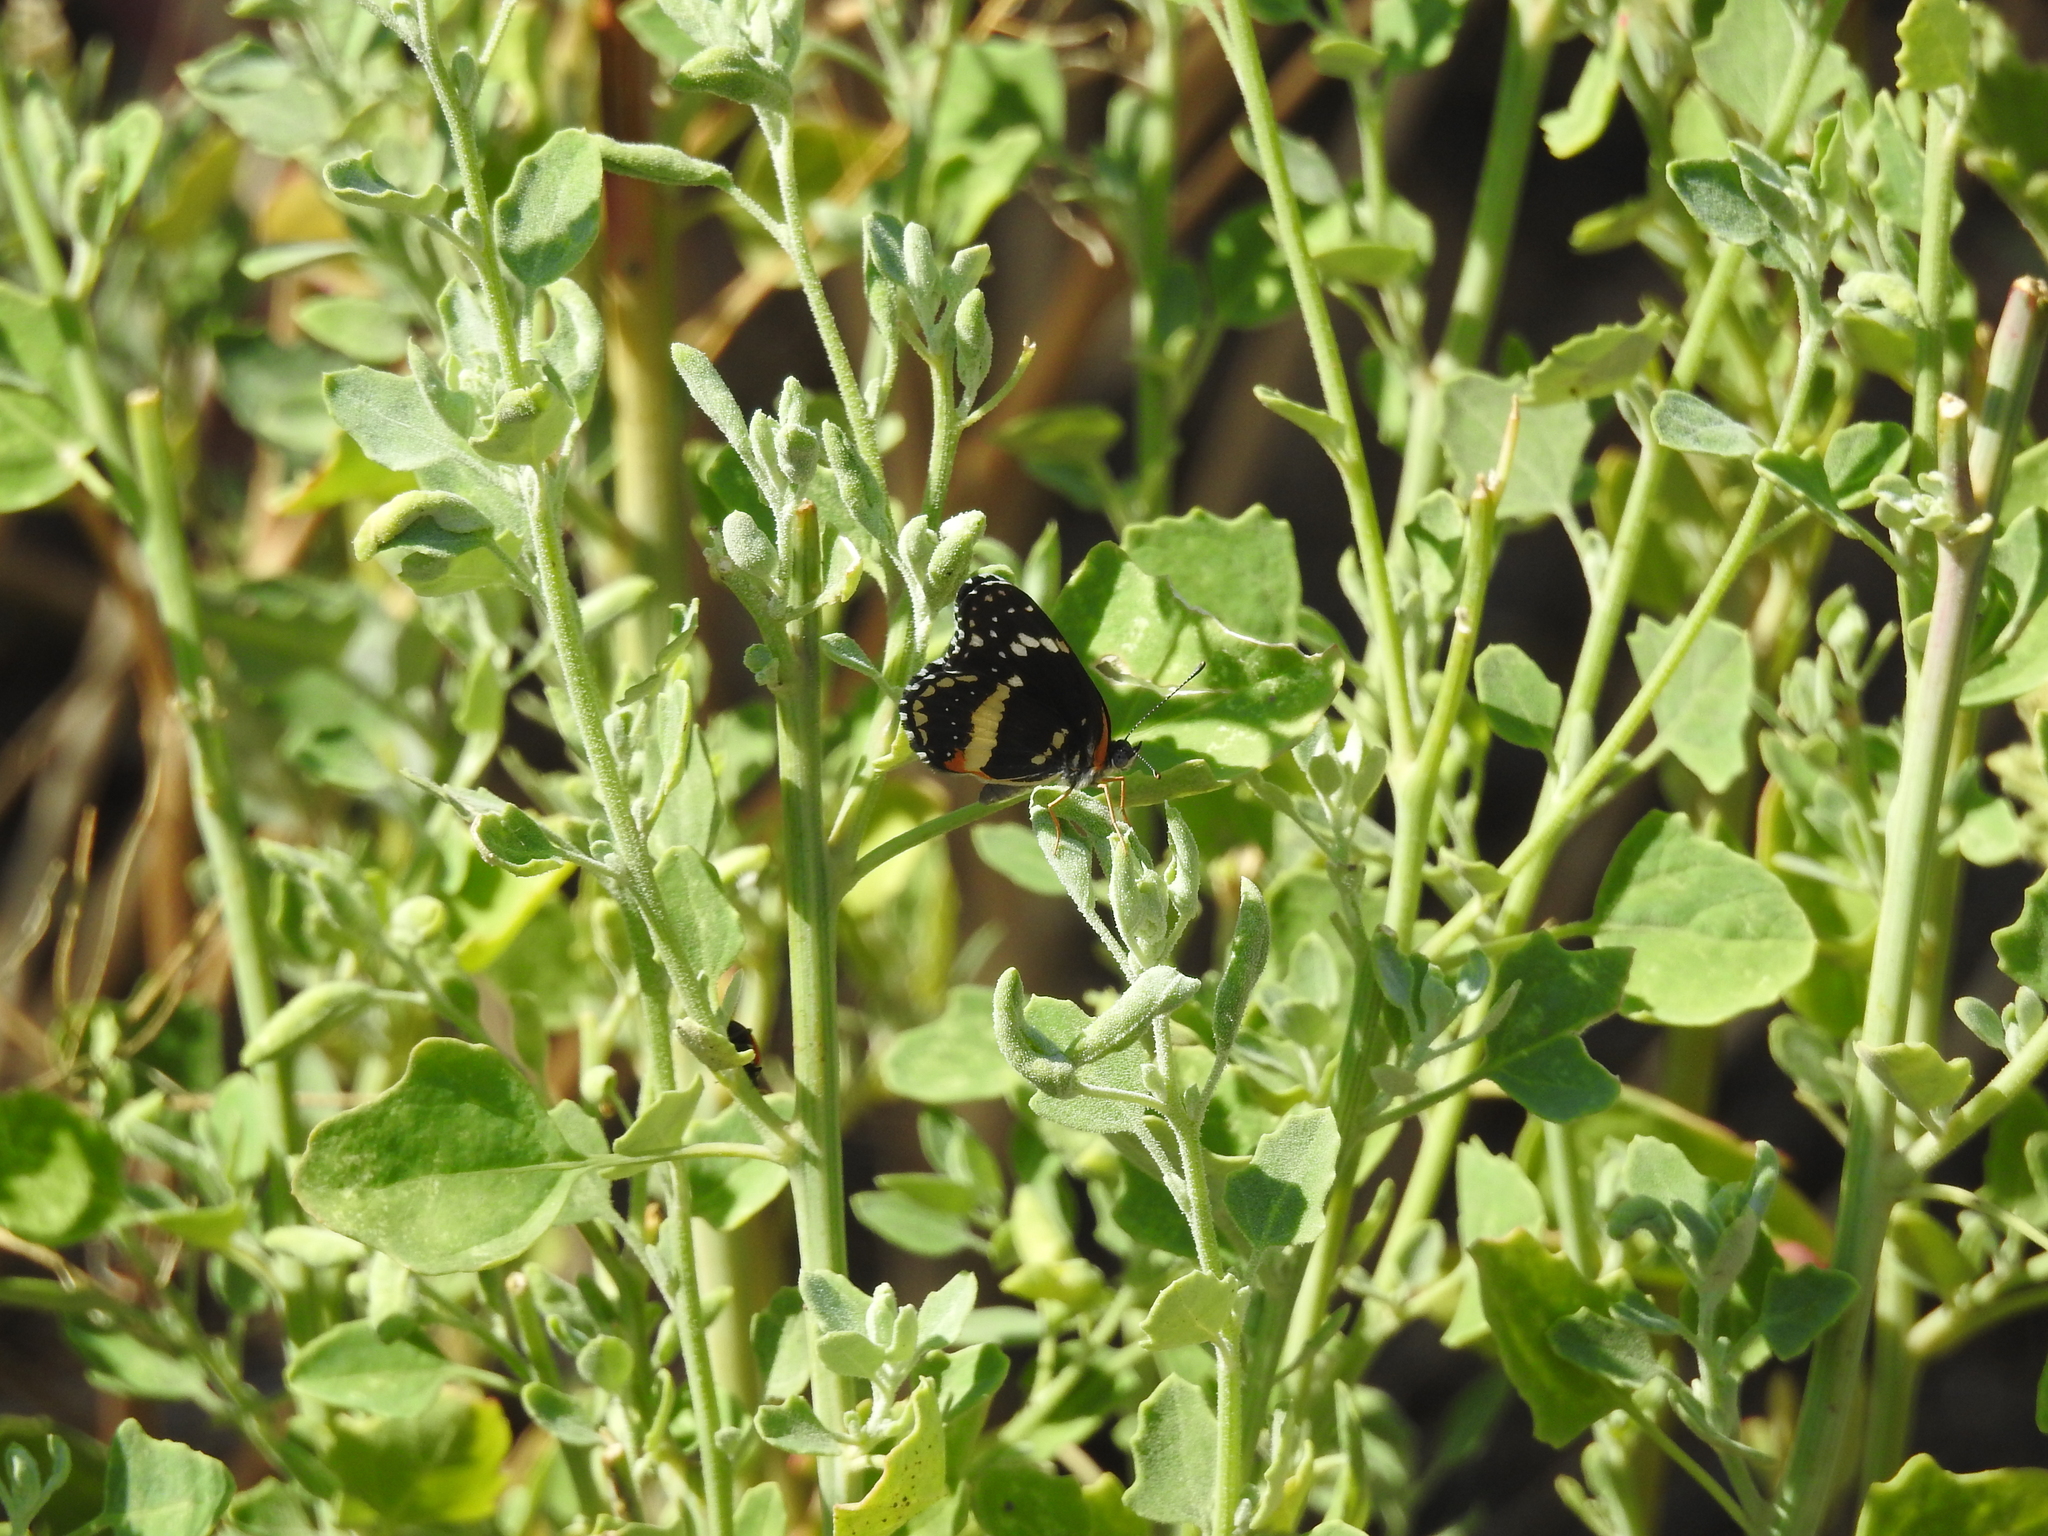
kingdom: Animalia
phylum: Arthropoda
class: Insecta
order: Lepidoptera
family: Nymphalidae
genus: Chlosyne
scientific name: Chlosyne lacinia
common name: Bordered patch
